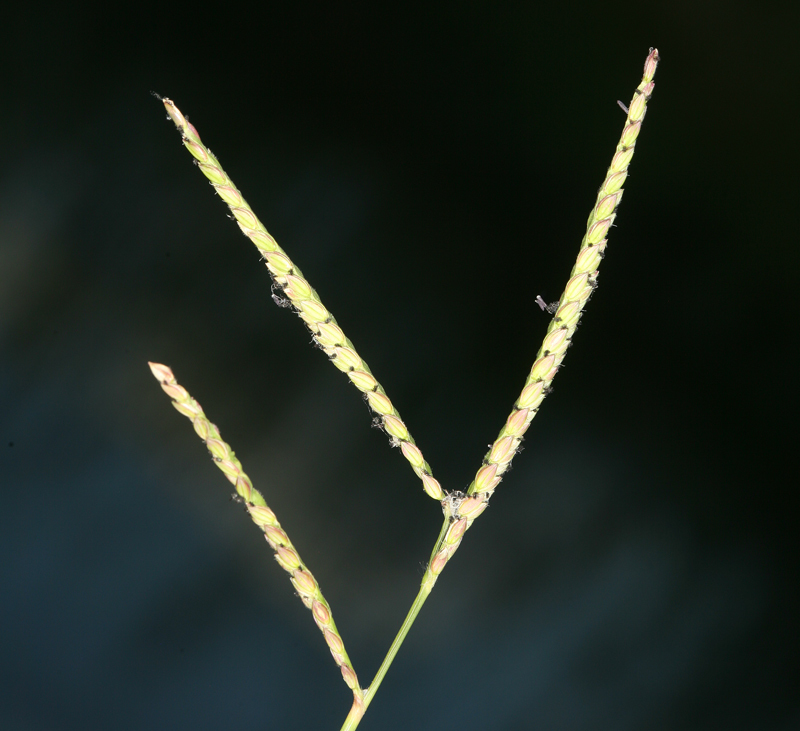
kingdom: Plantae
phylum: Tracheophyta
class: Liliopsida
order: Poales
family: Poaceae
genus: Paspalum
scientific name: Paspalum distichum
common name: Knotgrass
